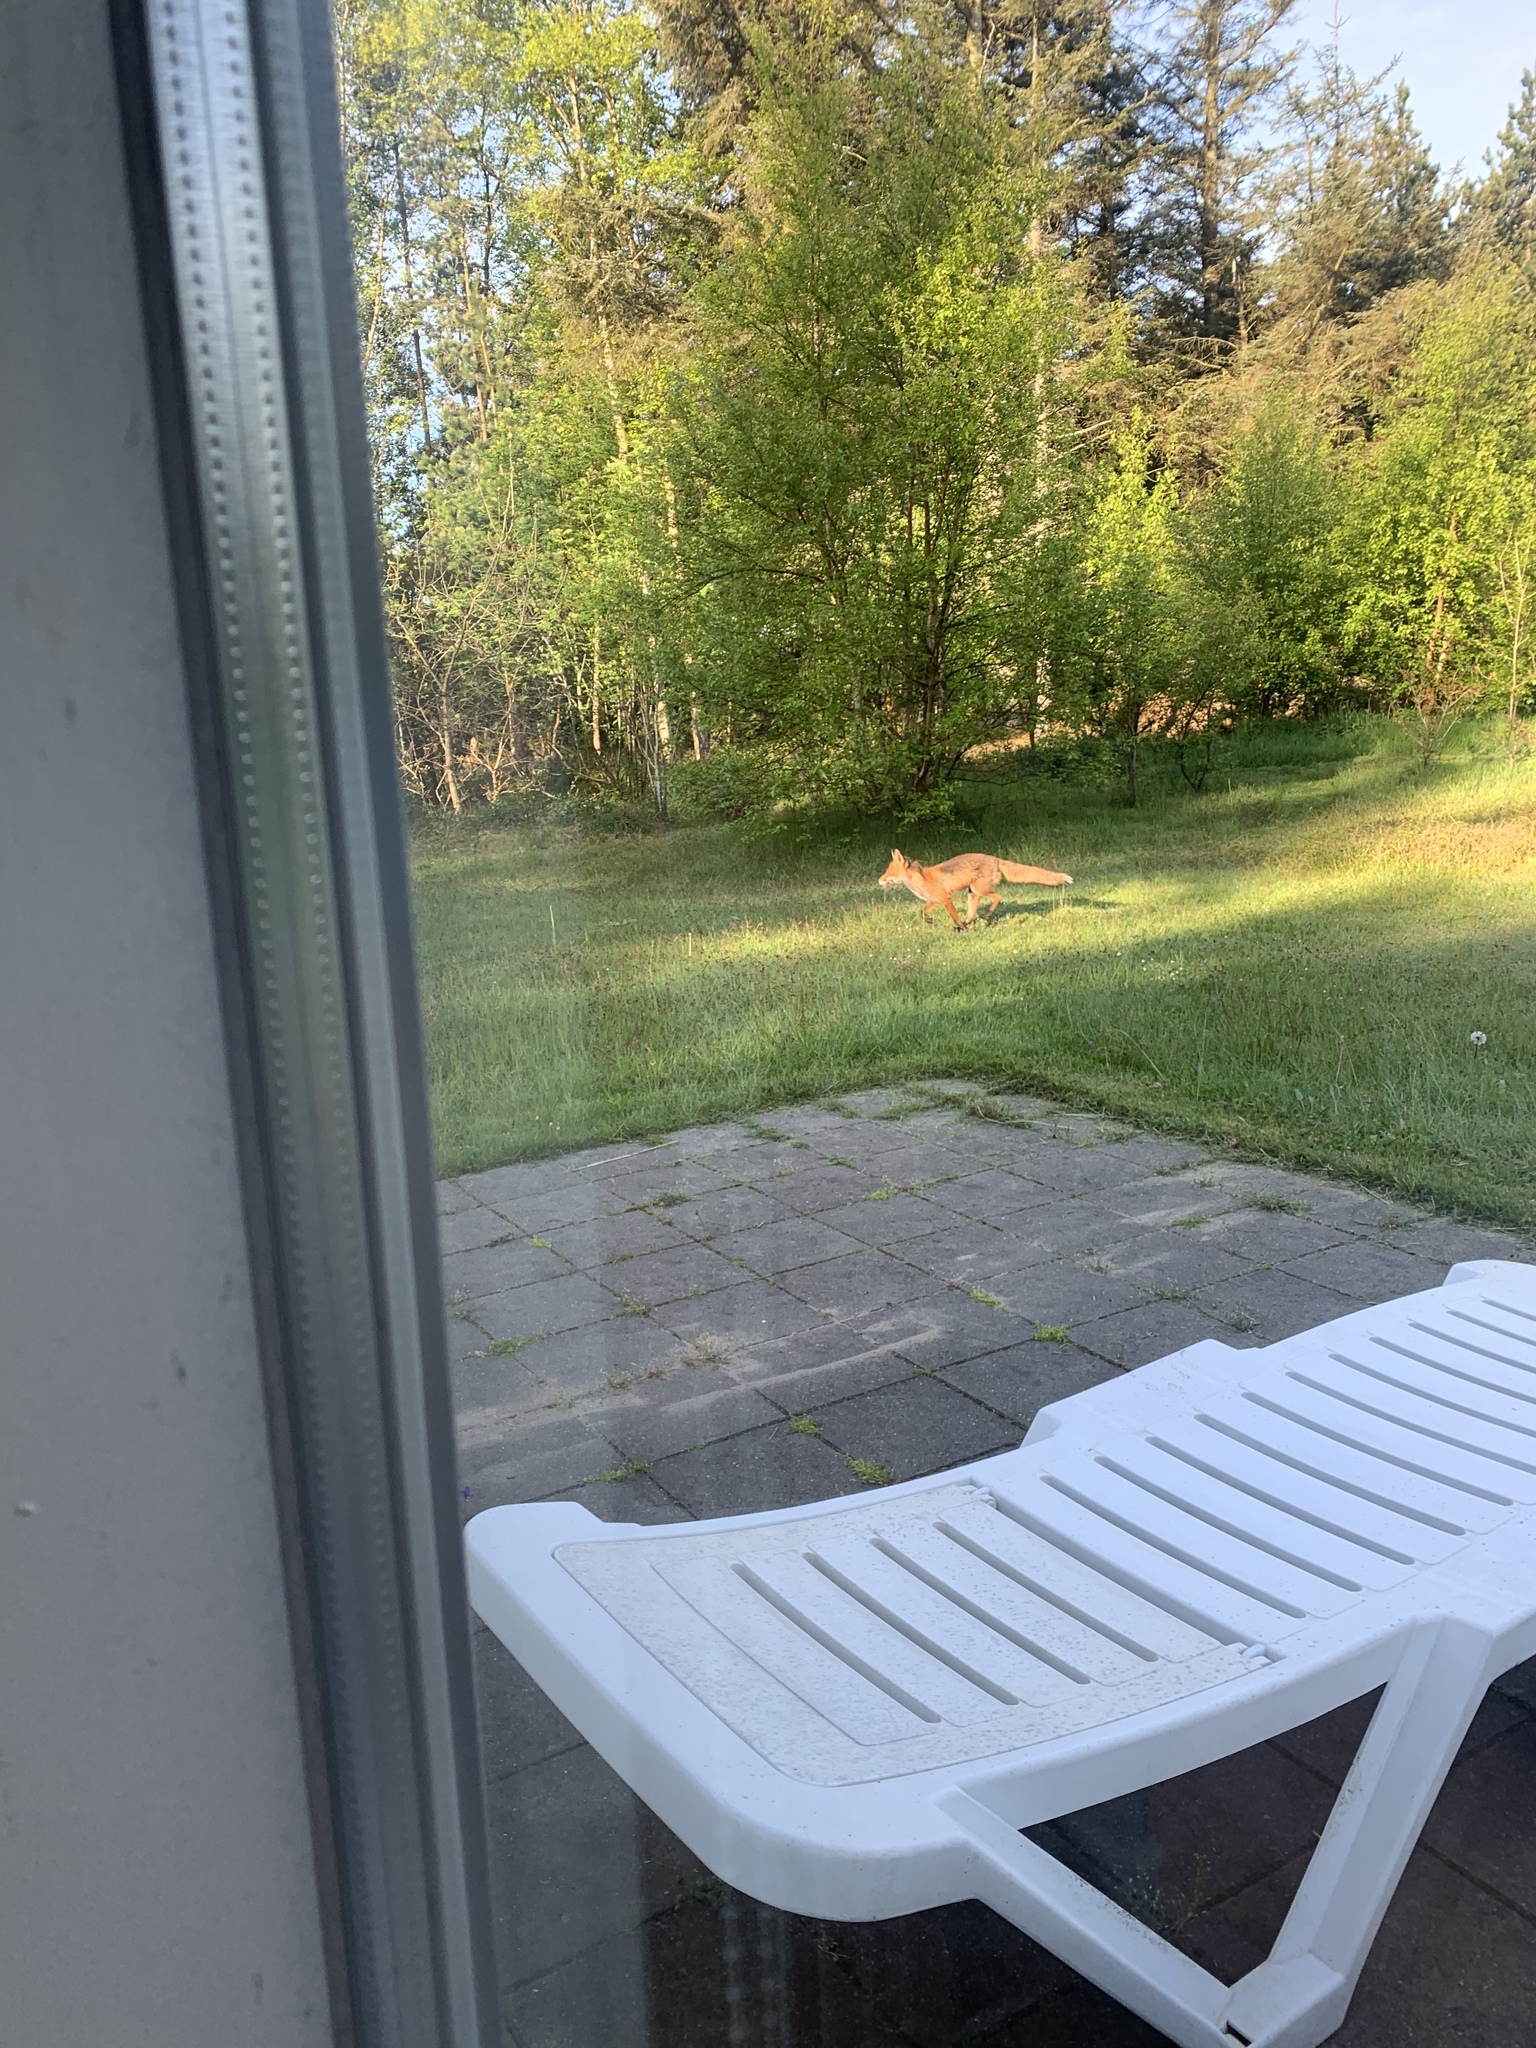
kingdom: Animalia
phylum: Chordata
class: Mammalia
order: Carnivora
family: Canidae
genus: Vulpes
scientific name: Vulpes vulpes
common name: Red fox
